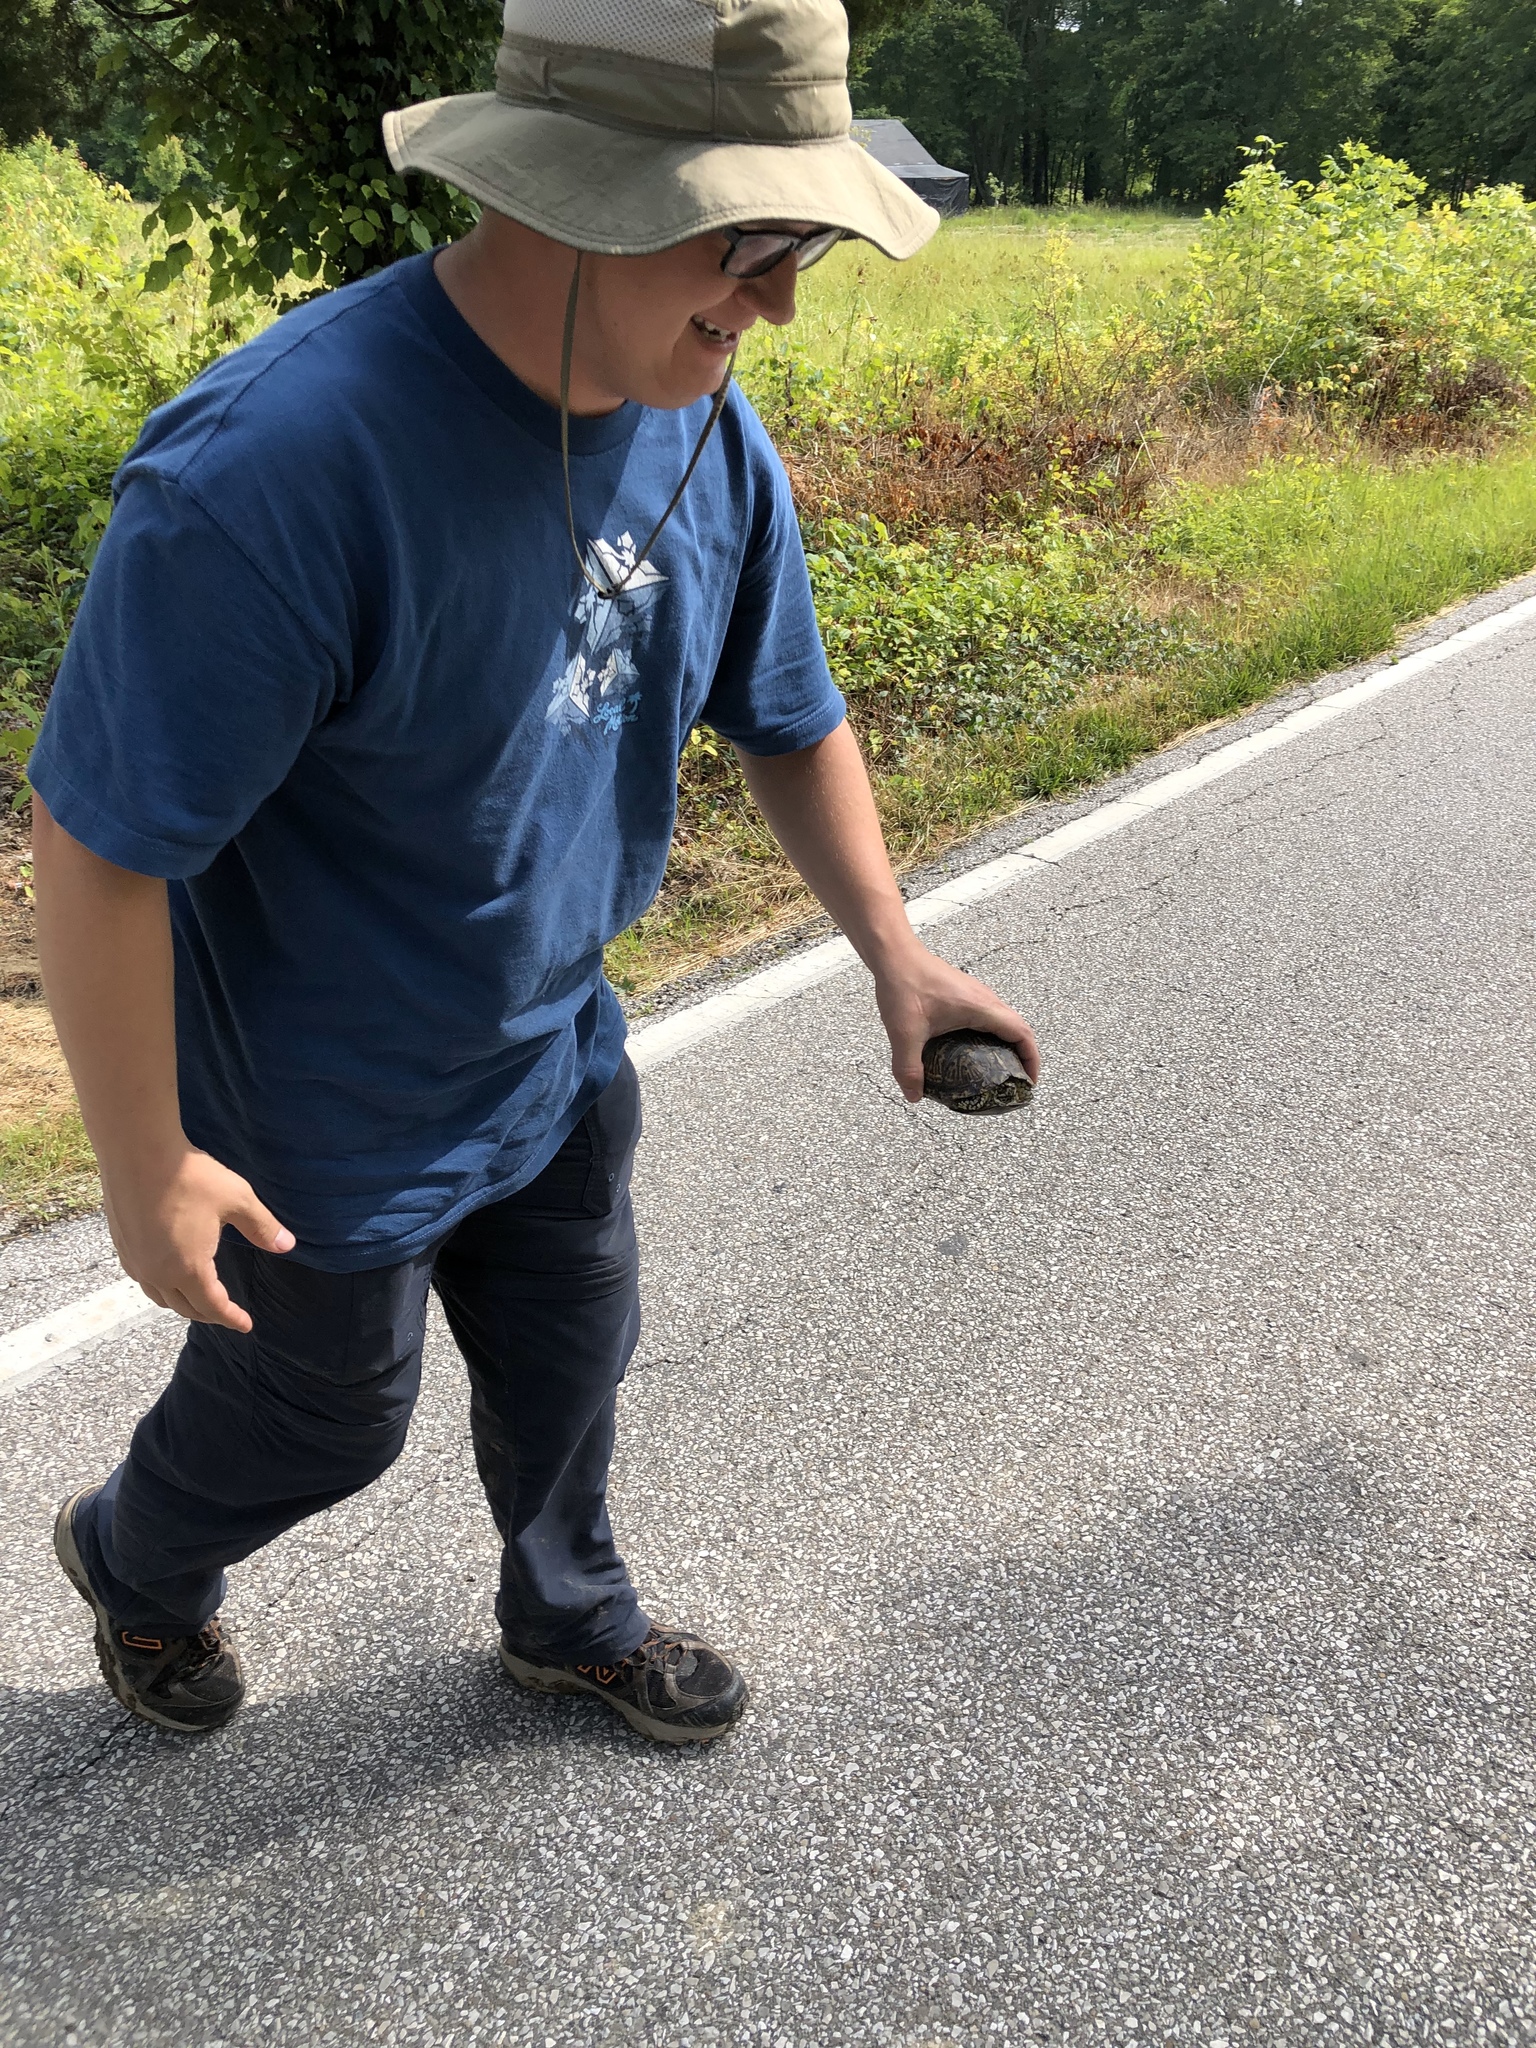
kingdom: Animalia
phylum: Chordata
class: Testudines
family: Emydidae
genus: Terrapene
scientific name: Terrapene carolina
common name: Common box turtle
